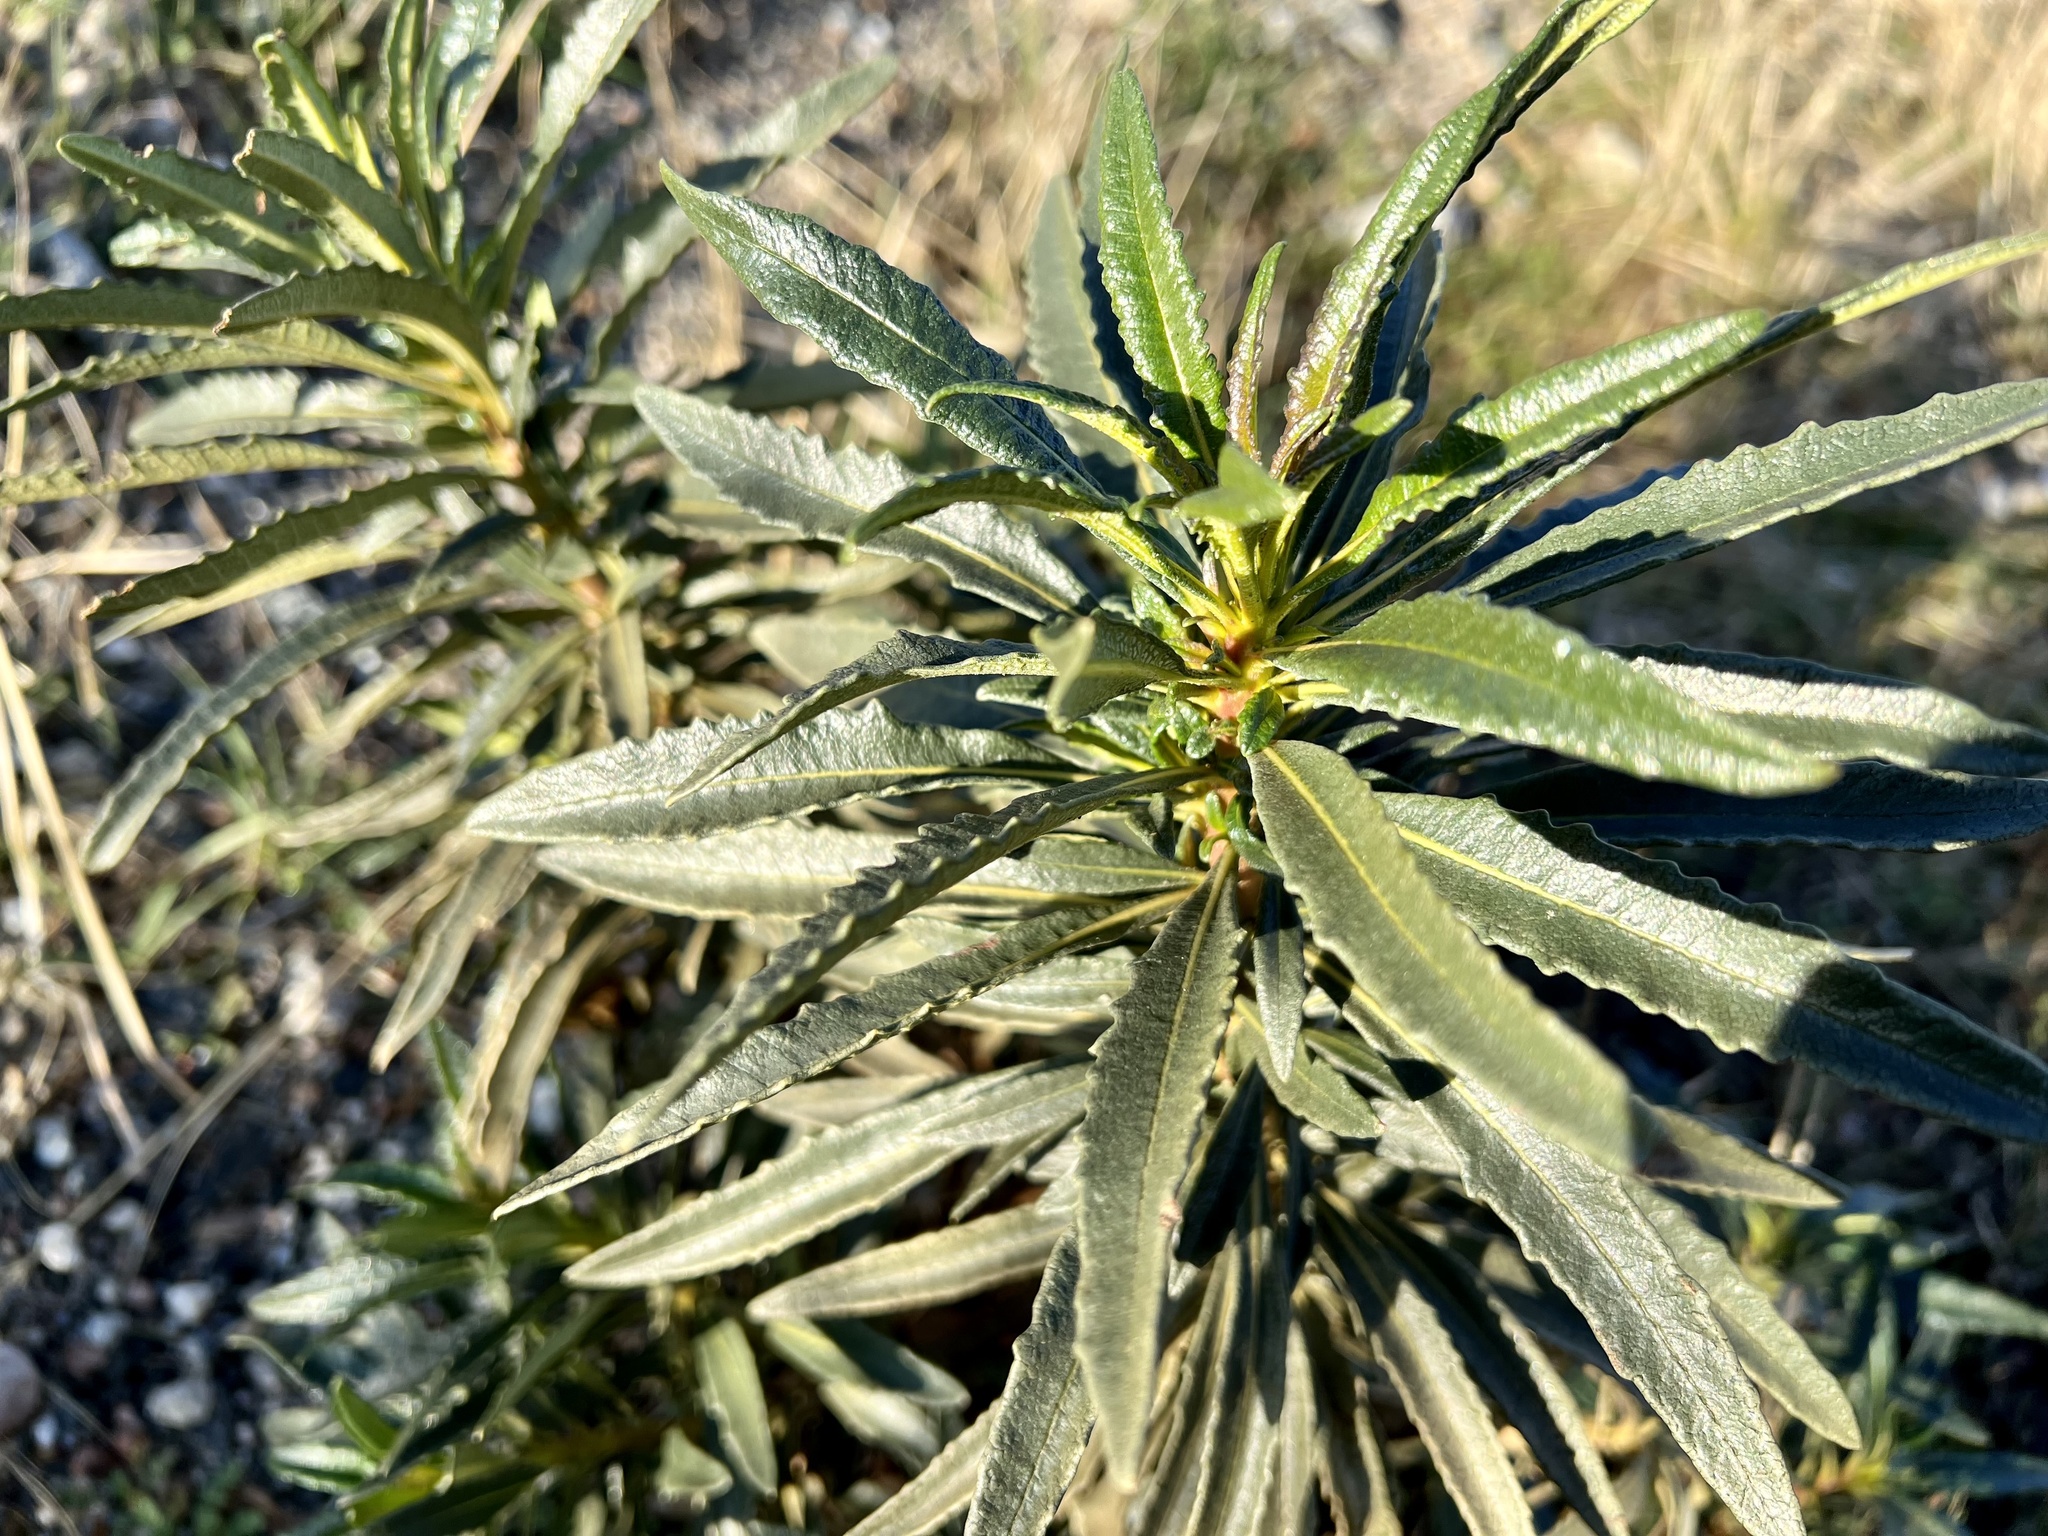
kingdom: Plantae
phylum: Tracheophyta
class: Magnoliopsida
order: Boraginales
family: Namaceae
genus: Eriodictyon
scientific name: Eriodictyon trichocalyx
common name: Hairy yerba-santa
